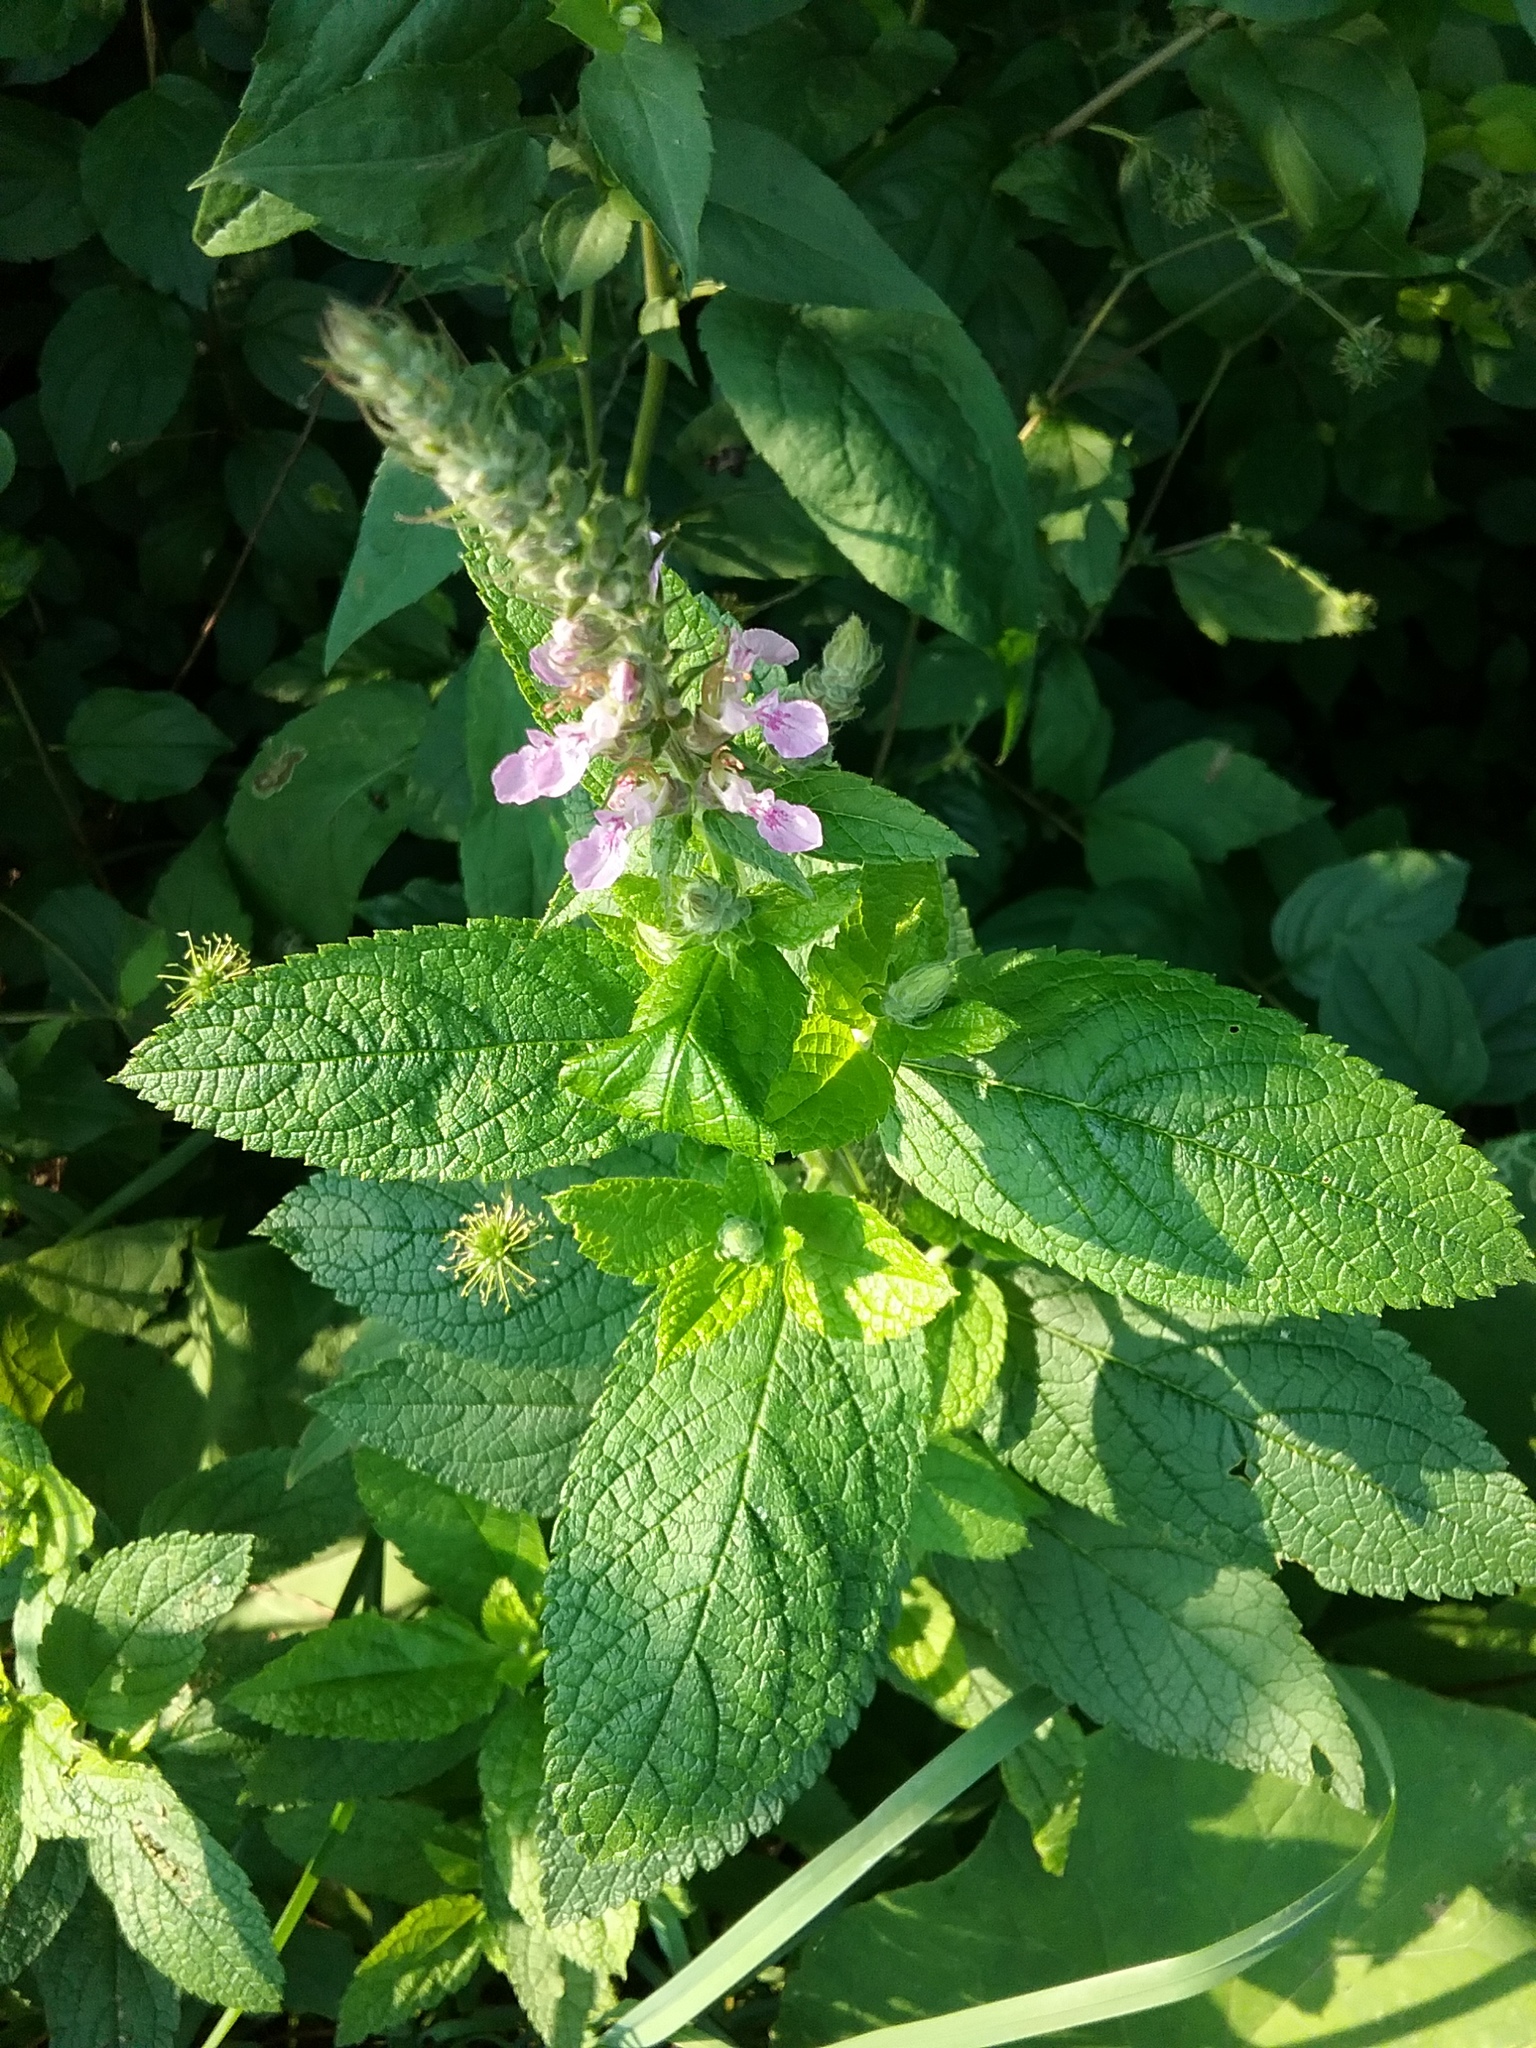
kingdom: Plantae
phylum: Tracheophyta
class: Magnoliopsida
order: Lamiales
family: Lamiaceae
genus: Teucrium
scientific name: Teucrium canadense
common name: American germander
